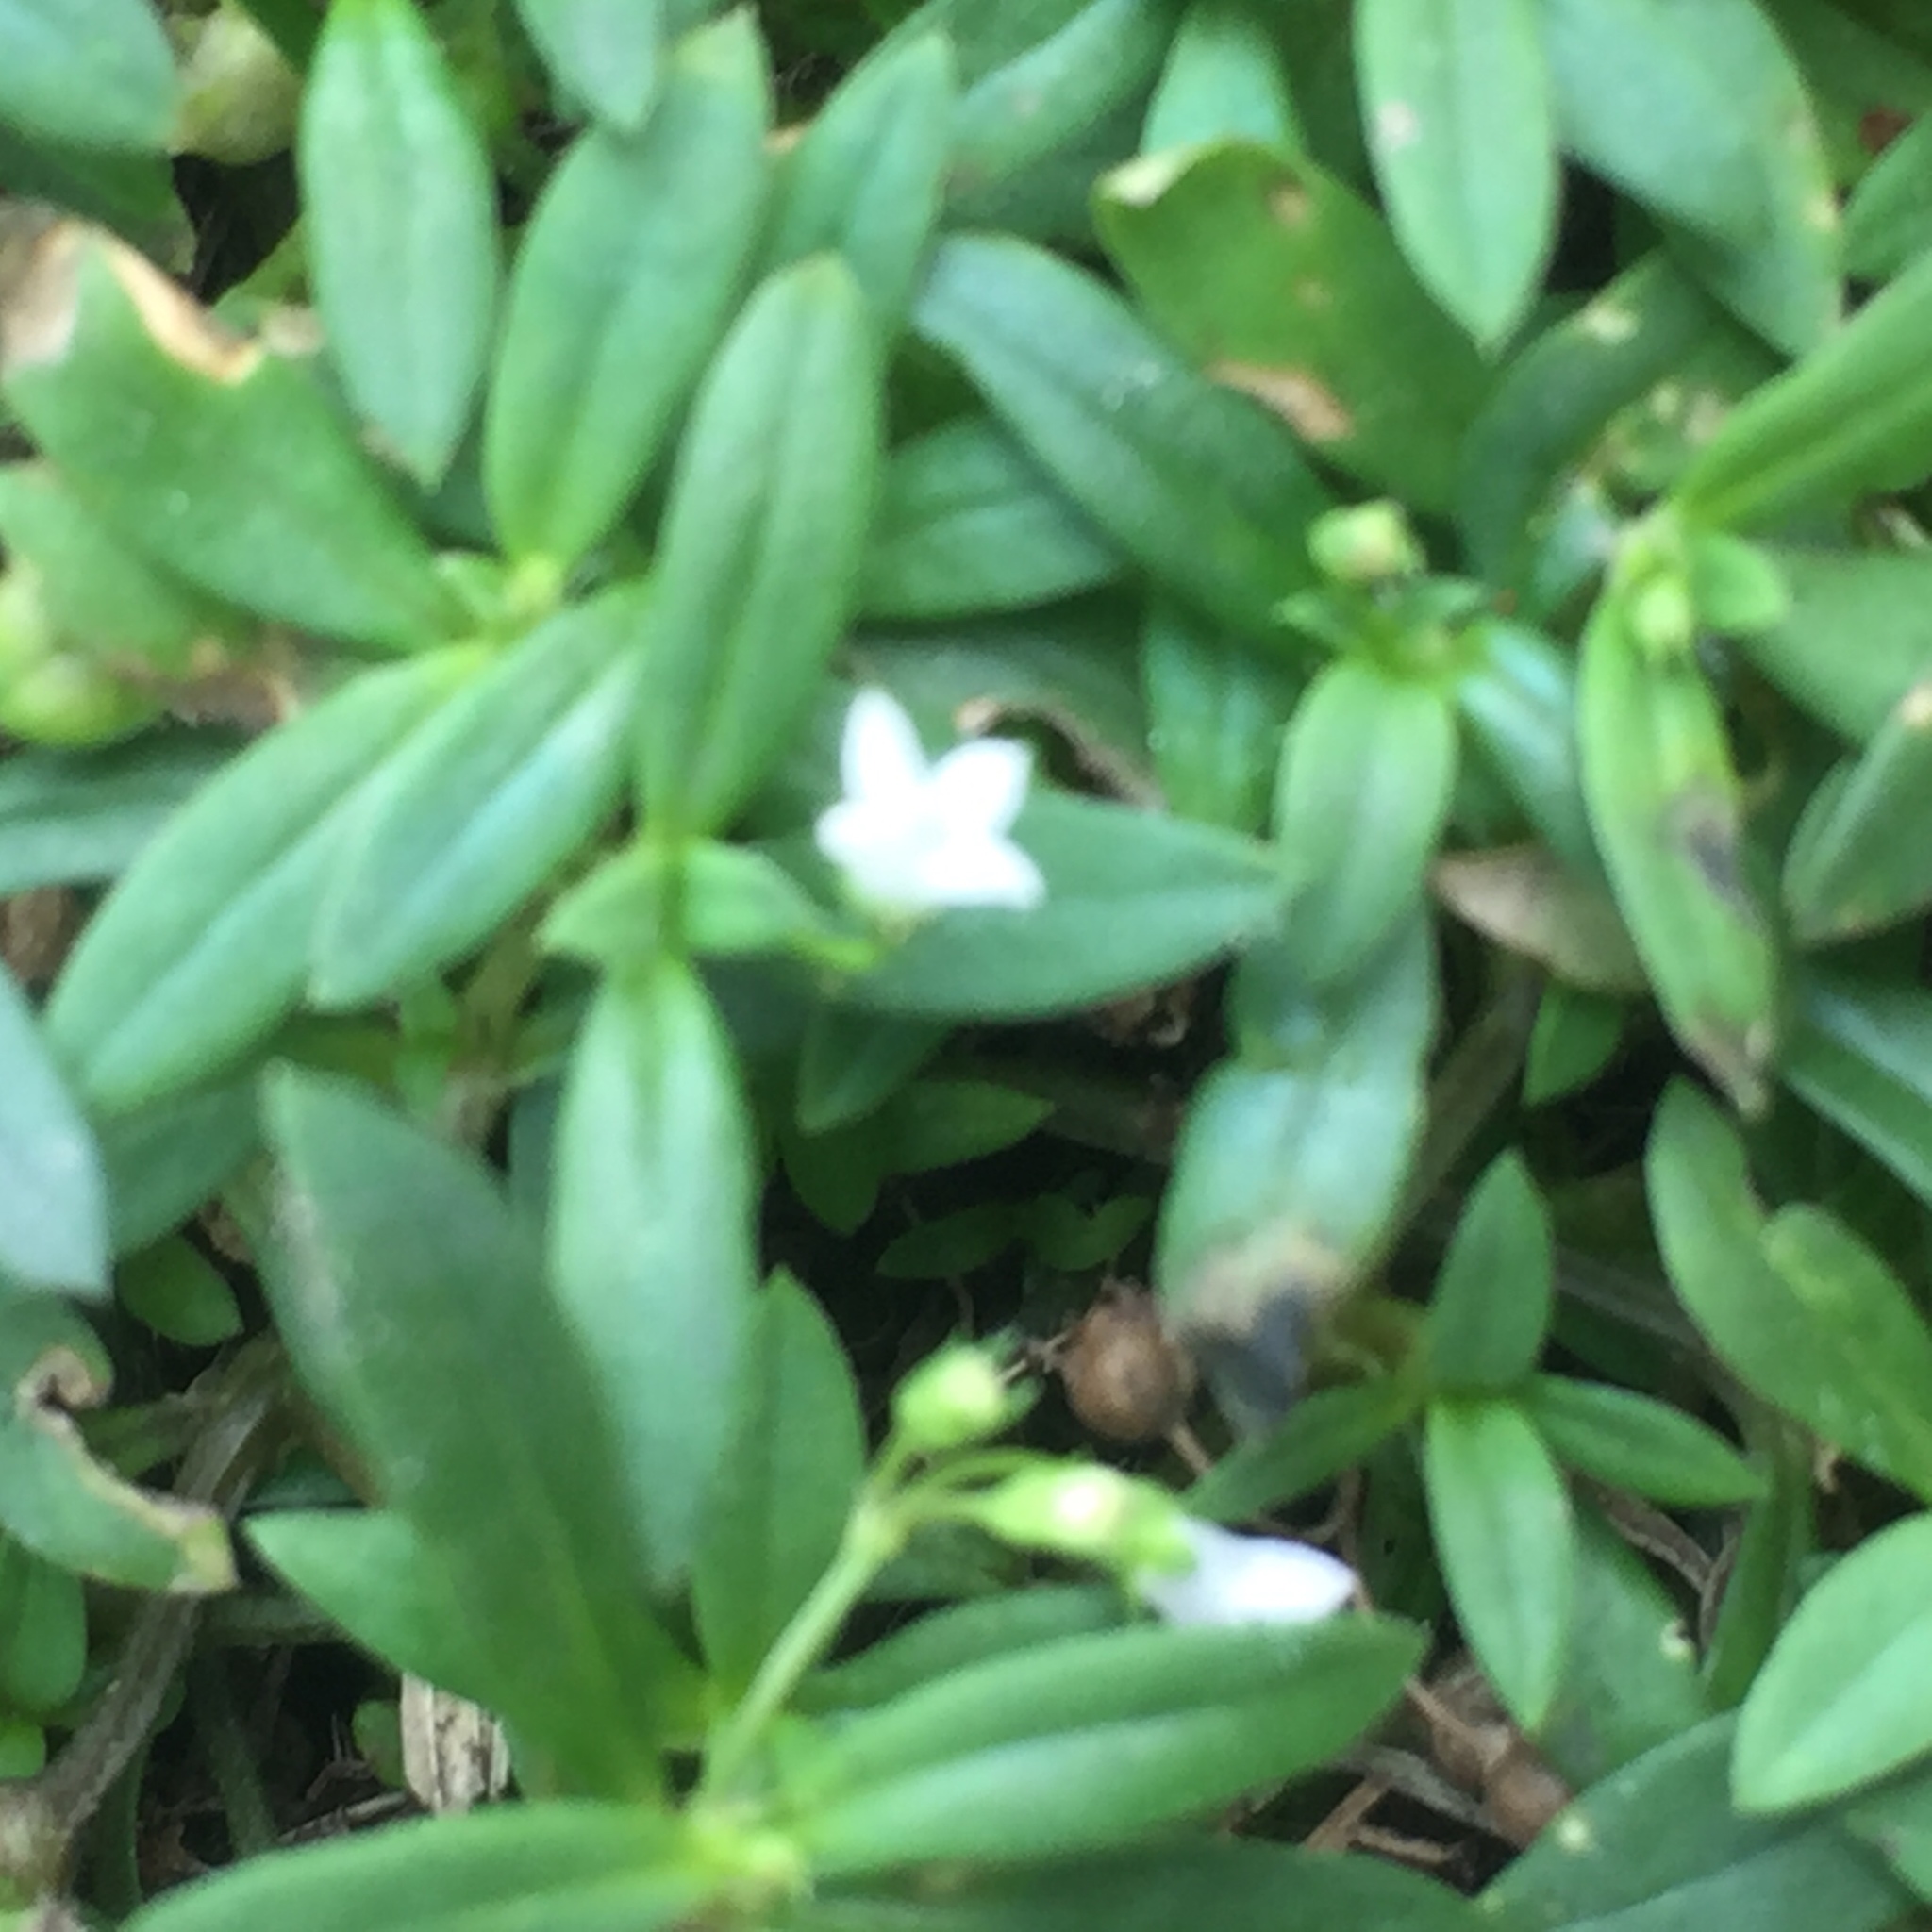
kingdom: Plantae
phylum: Tracheophyta
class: Magnoliopsida
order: Gentianales
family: Rubiaceae
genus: Oldenlandia
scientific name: Oldenlandia corymbosa
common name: Flat-top mille graines
